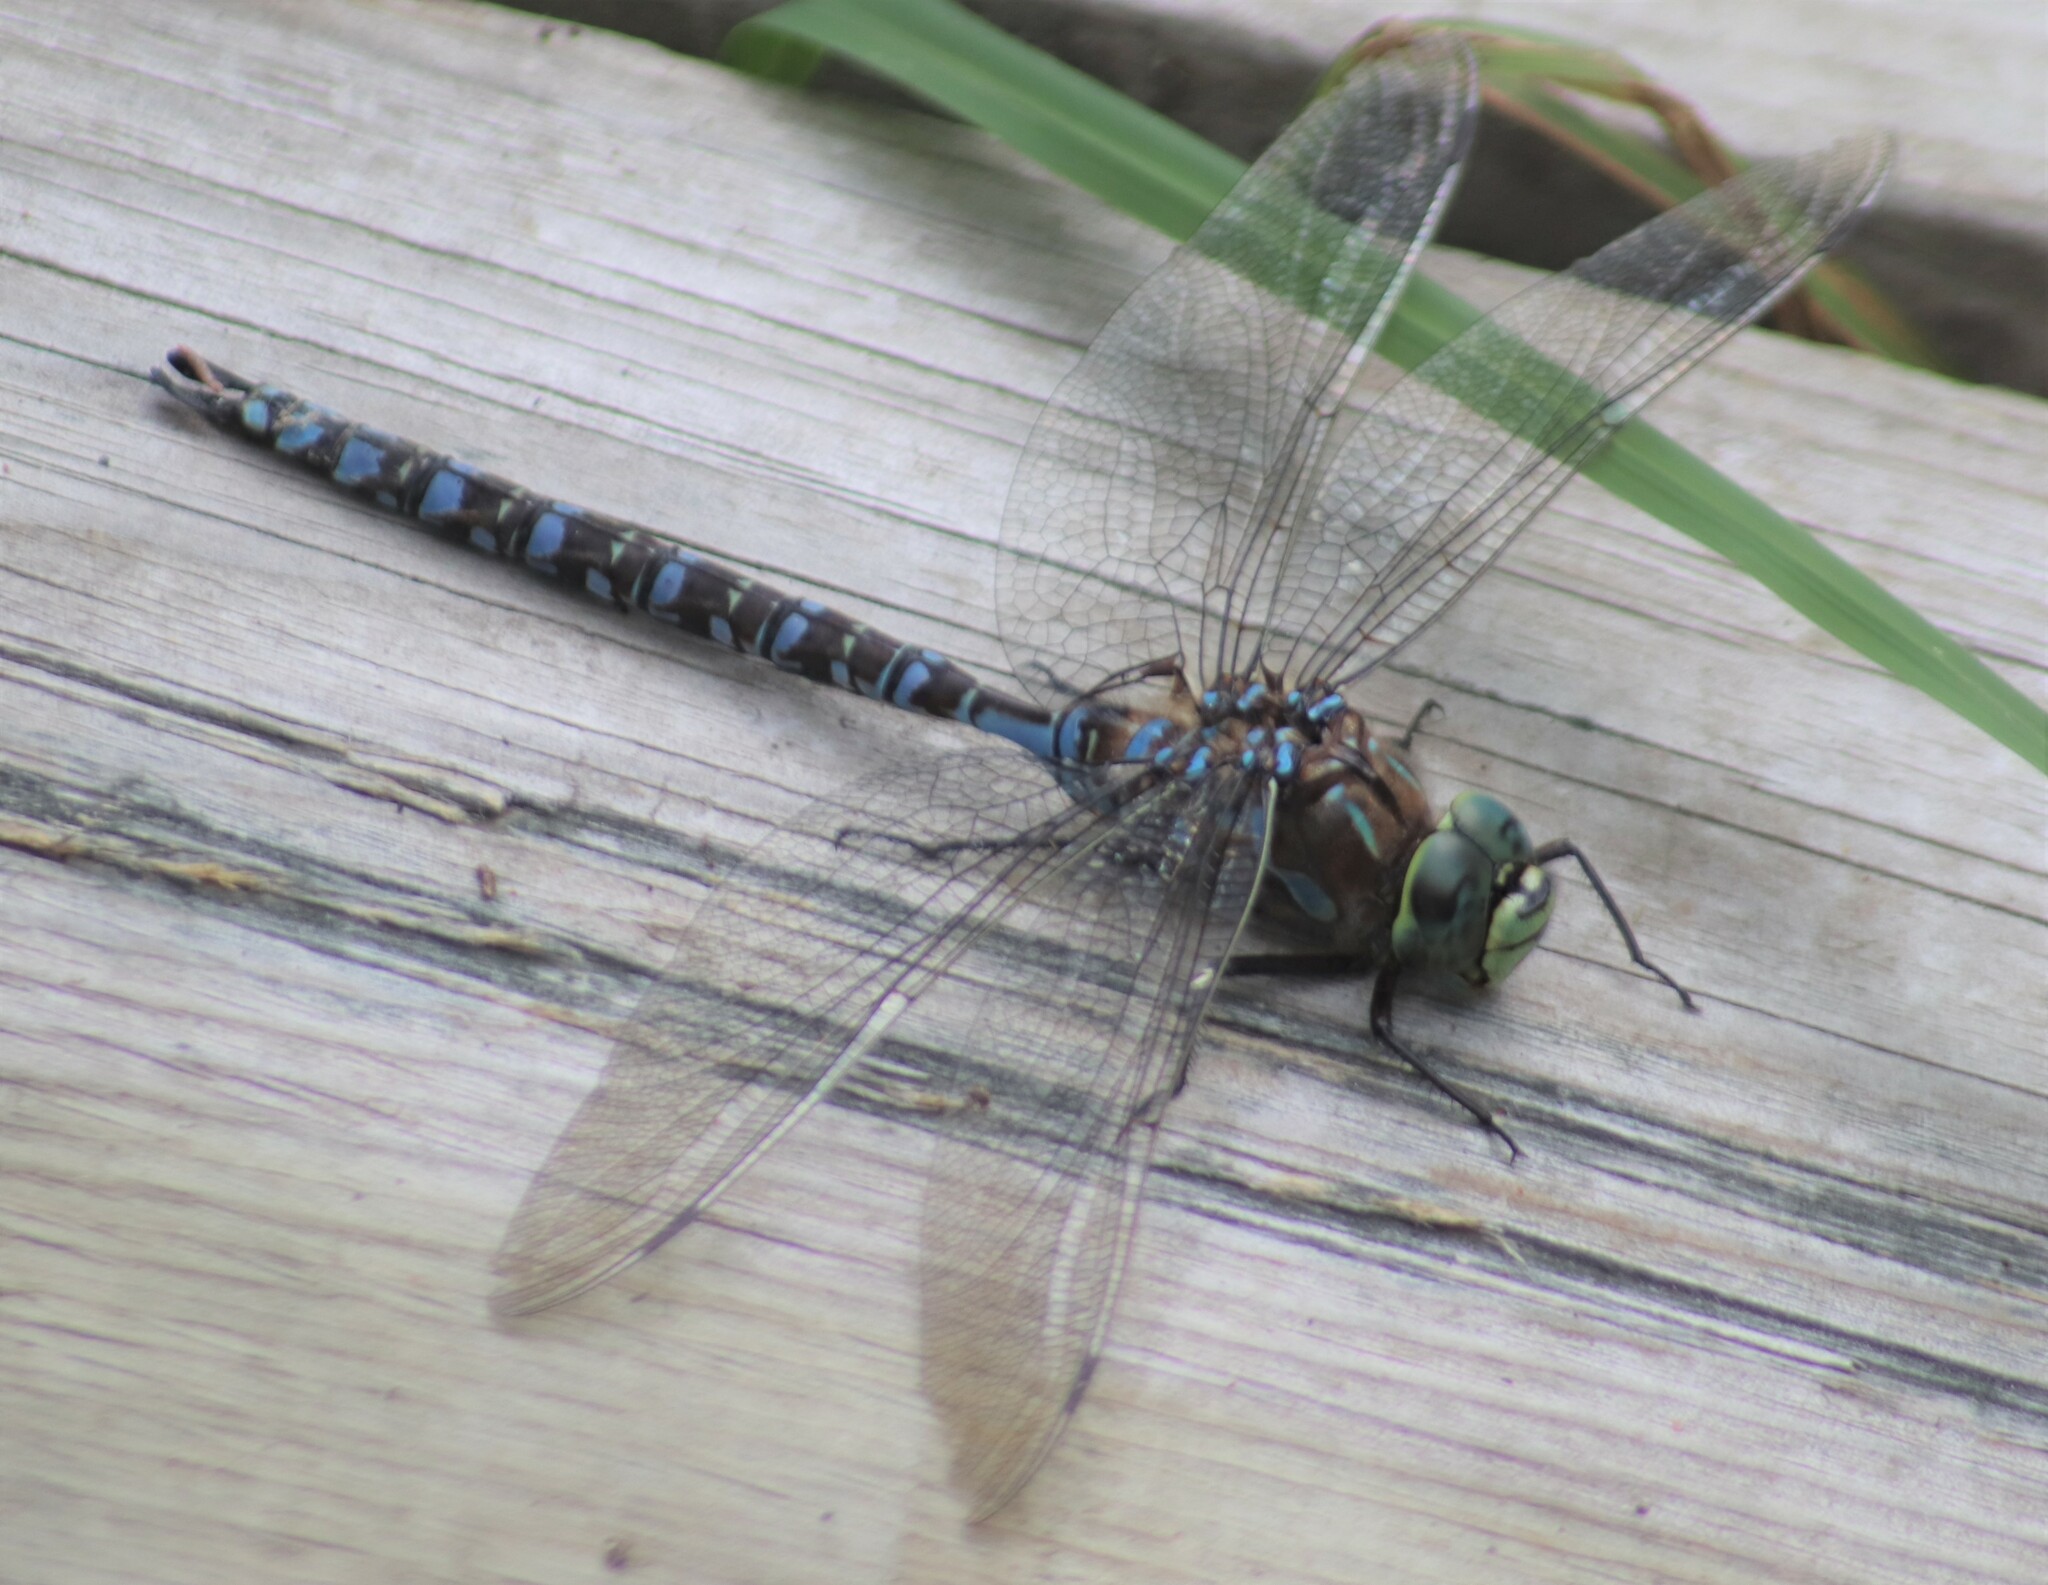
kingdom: Animalia
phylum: Arthropoda
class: Insecta
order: Odonata
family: Aeshnidae
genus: Aeshna
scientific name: Aeshna eremita
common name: Lake darner
